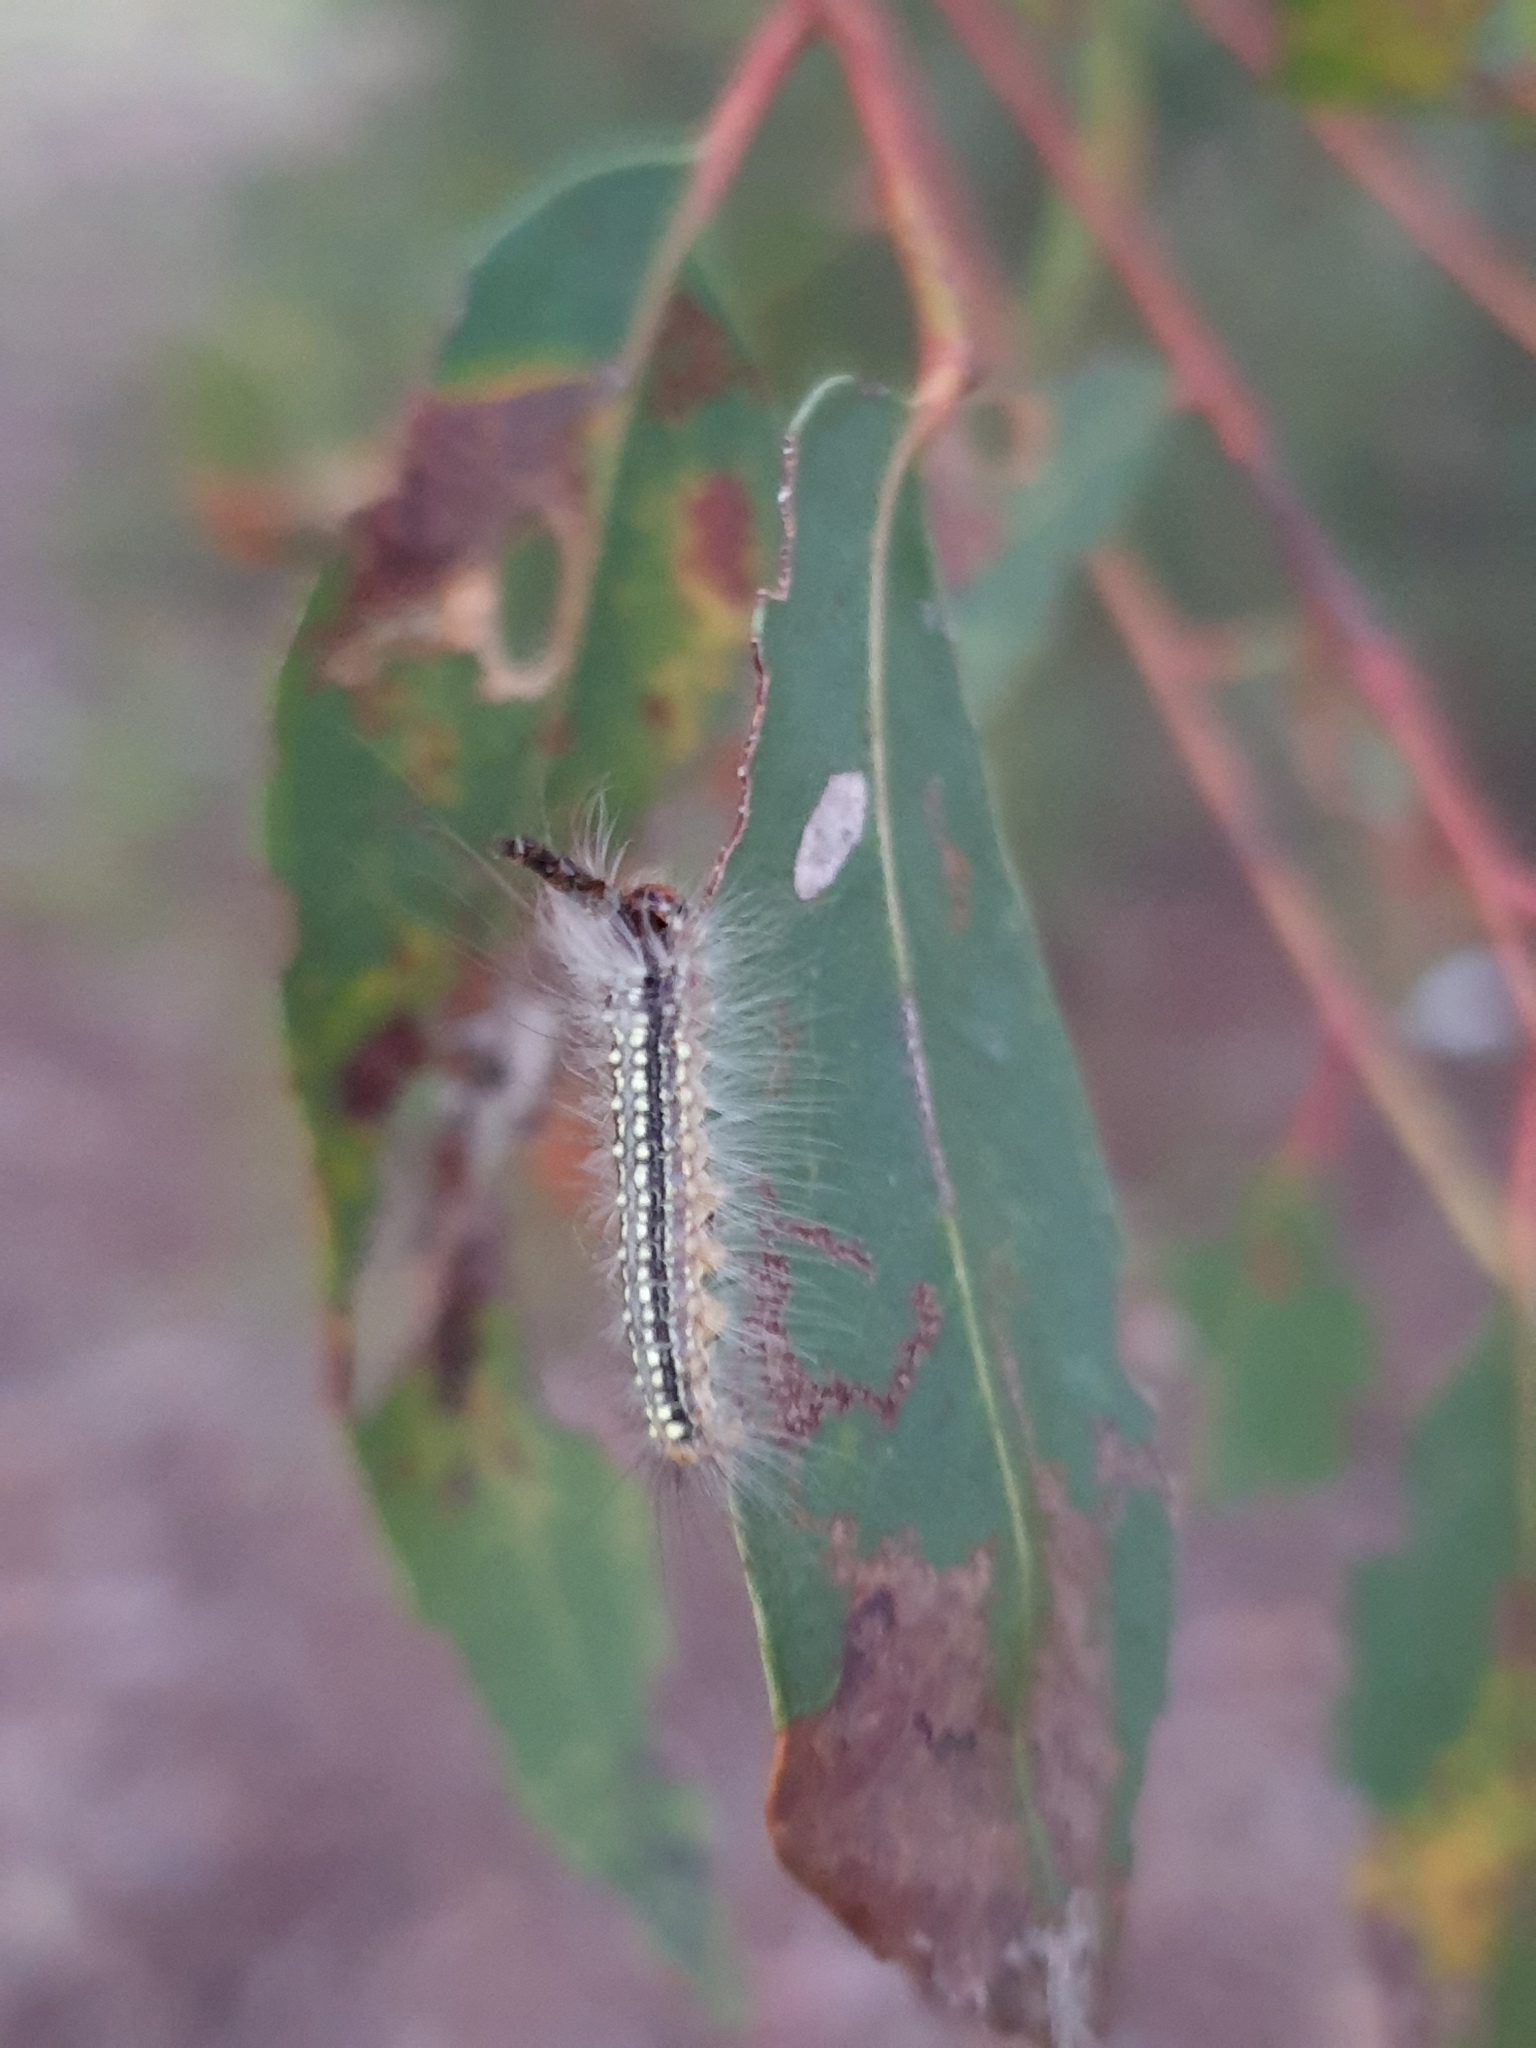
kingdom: Animalia
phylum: Arthropoda
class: Insecta
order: Lepidoptera
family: Nolidae
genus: Uraba
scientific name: Uraba lugens
